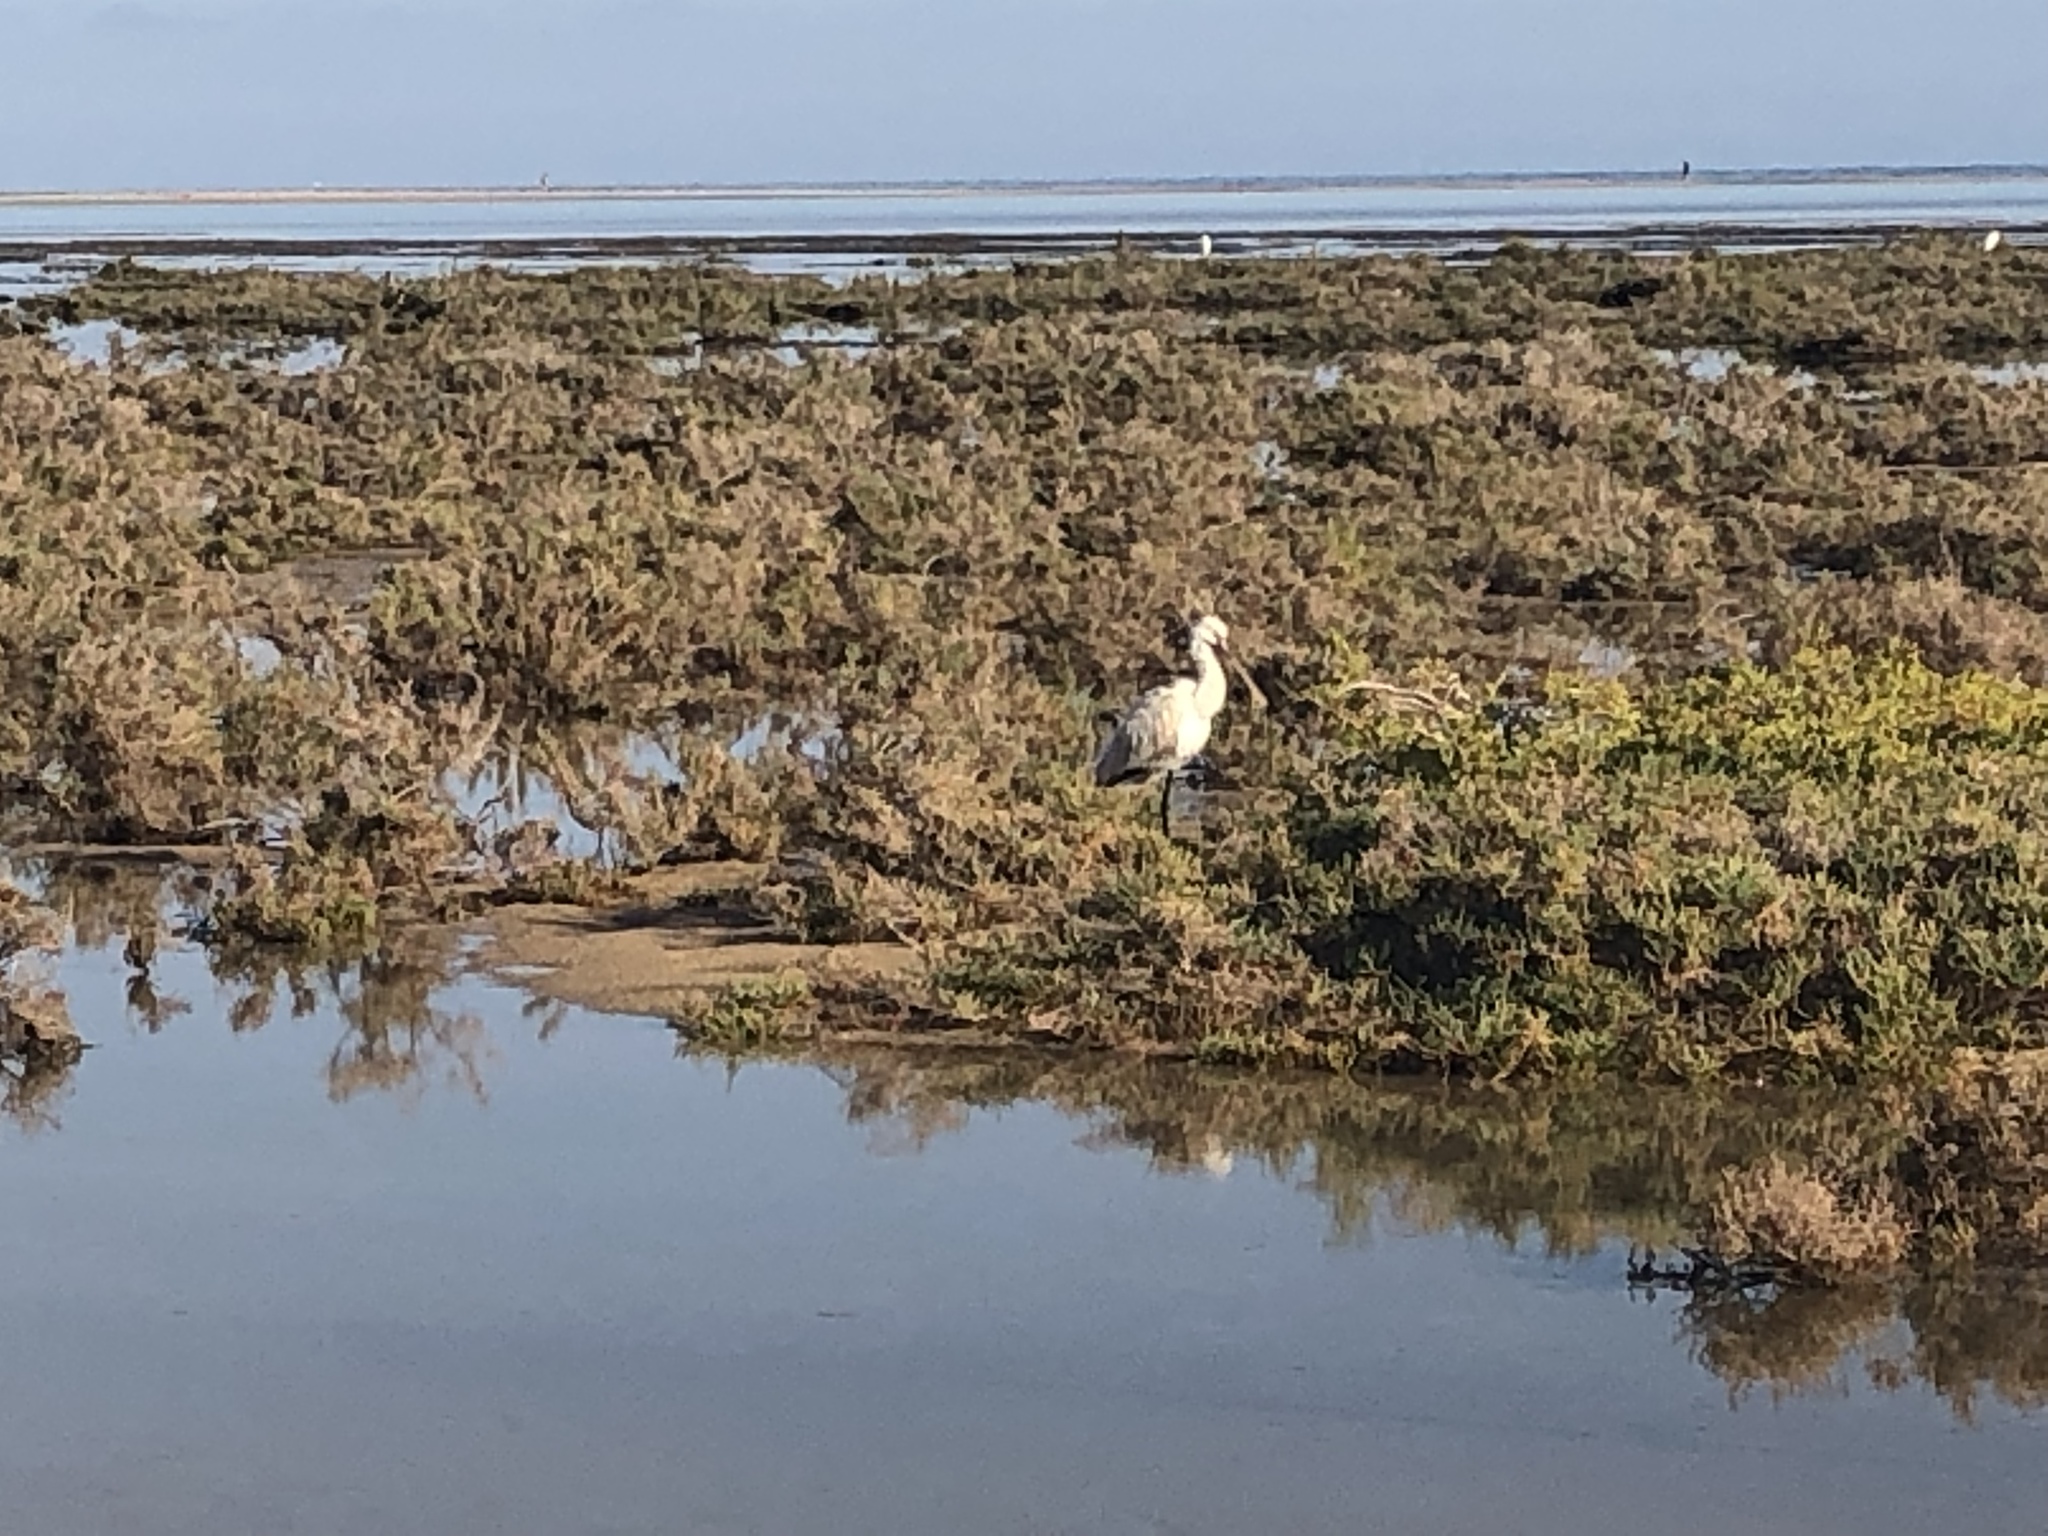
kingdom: Animalia
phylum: Chordata
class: Aves
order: Pelecaniformes
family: Threskiornithidae
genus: Platalea
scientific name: Platalea leucorodia
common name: Eurasian spoonbill
